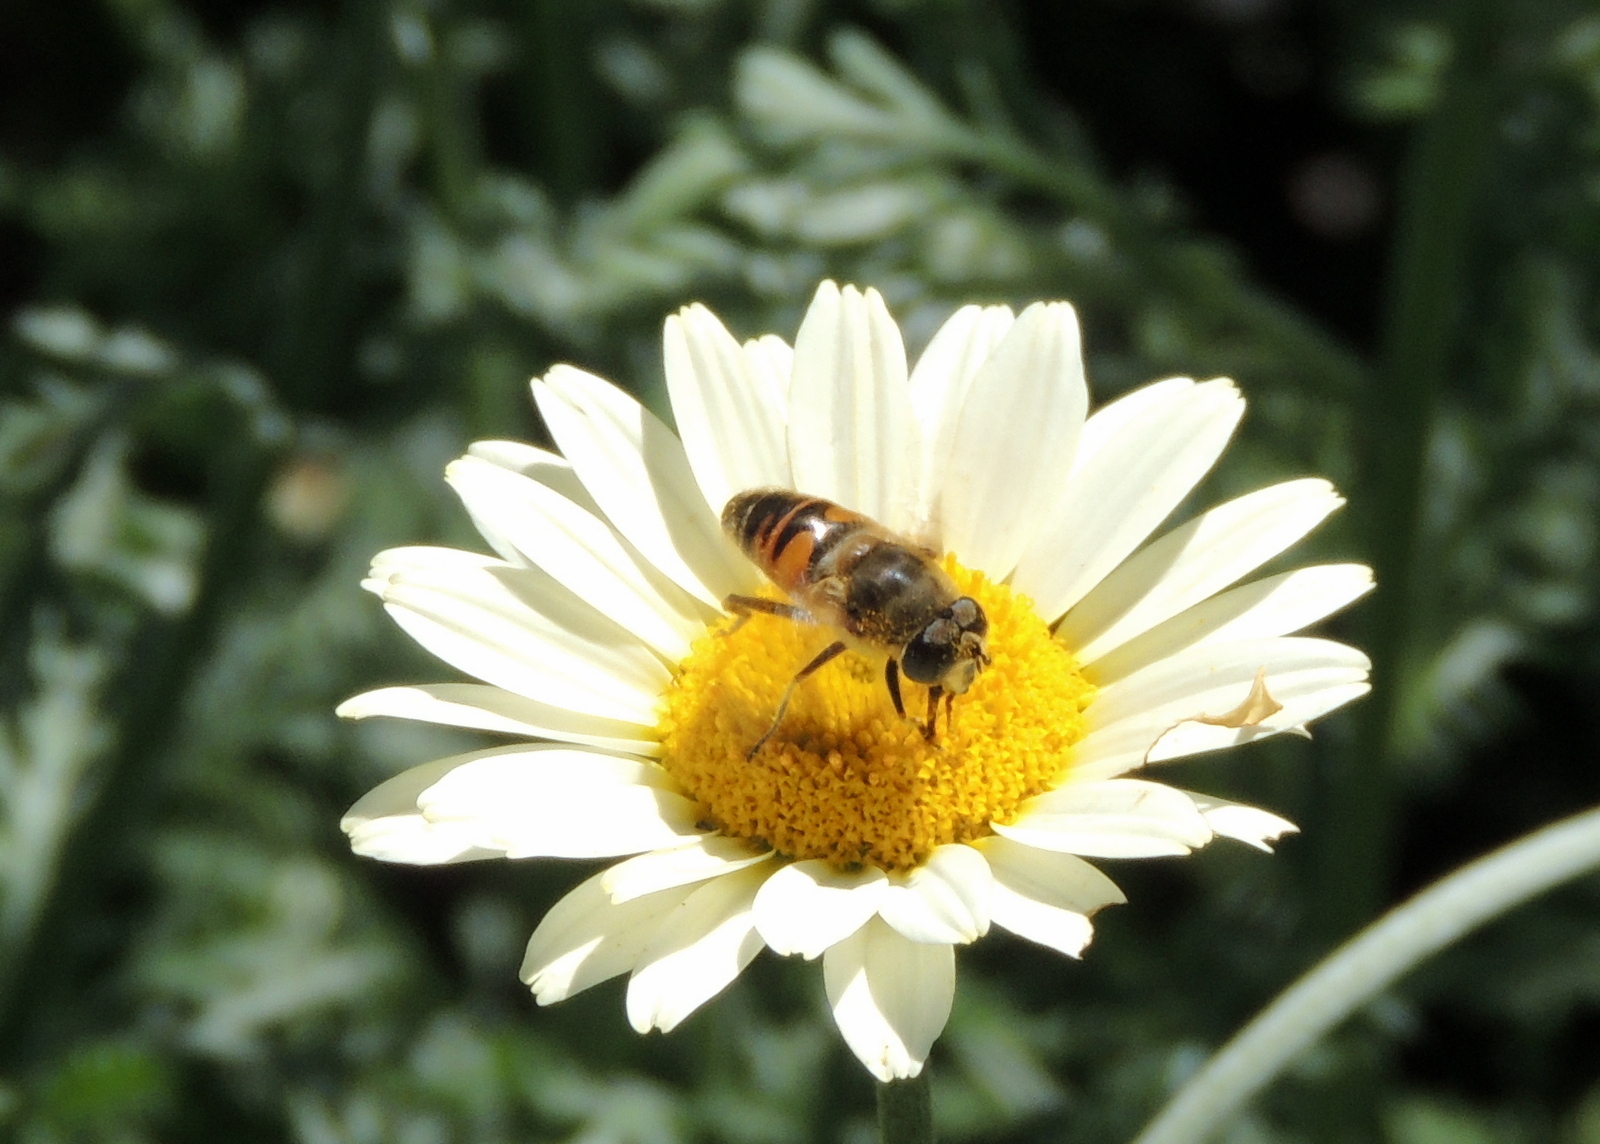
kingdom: Animalia
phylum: Arthropoda
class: Insecta
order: Diptera
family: Syrphidae
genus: Eristalis
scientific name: Eristalis tenax
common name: Drone fly
